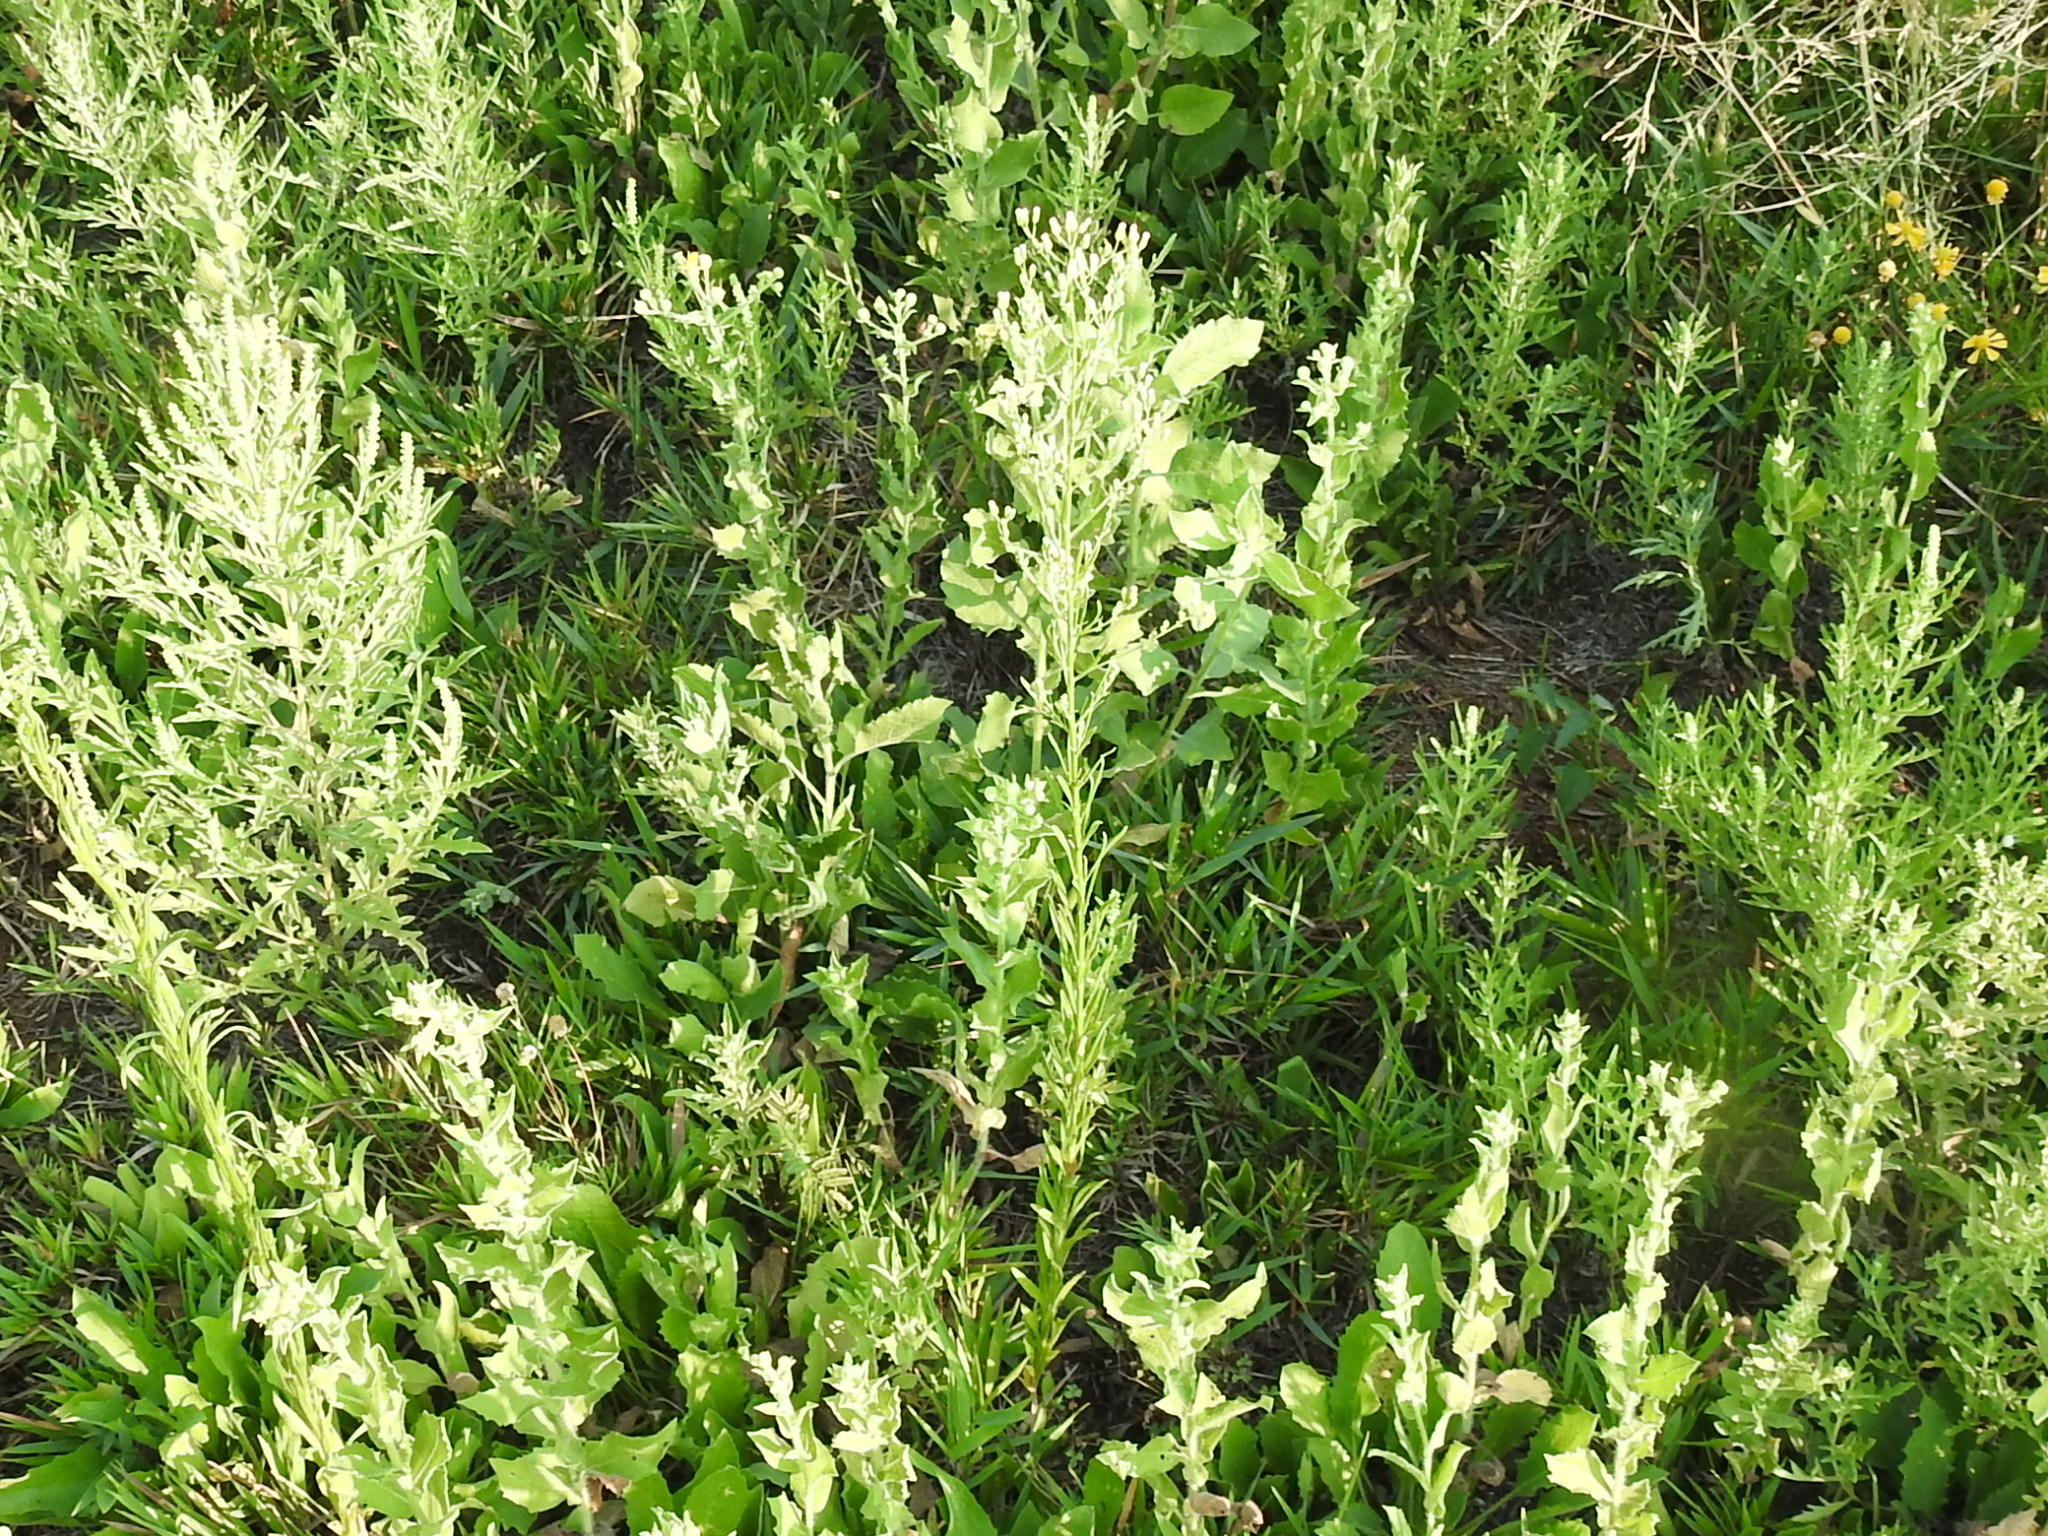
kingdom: Plantae
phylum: Tracheophyta
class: Magnoliopsida
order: Asterales
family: Asteraceae
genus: Erigeron
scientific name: Erigeron canadensis
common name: Canadian fleabane
